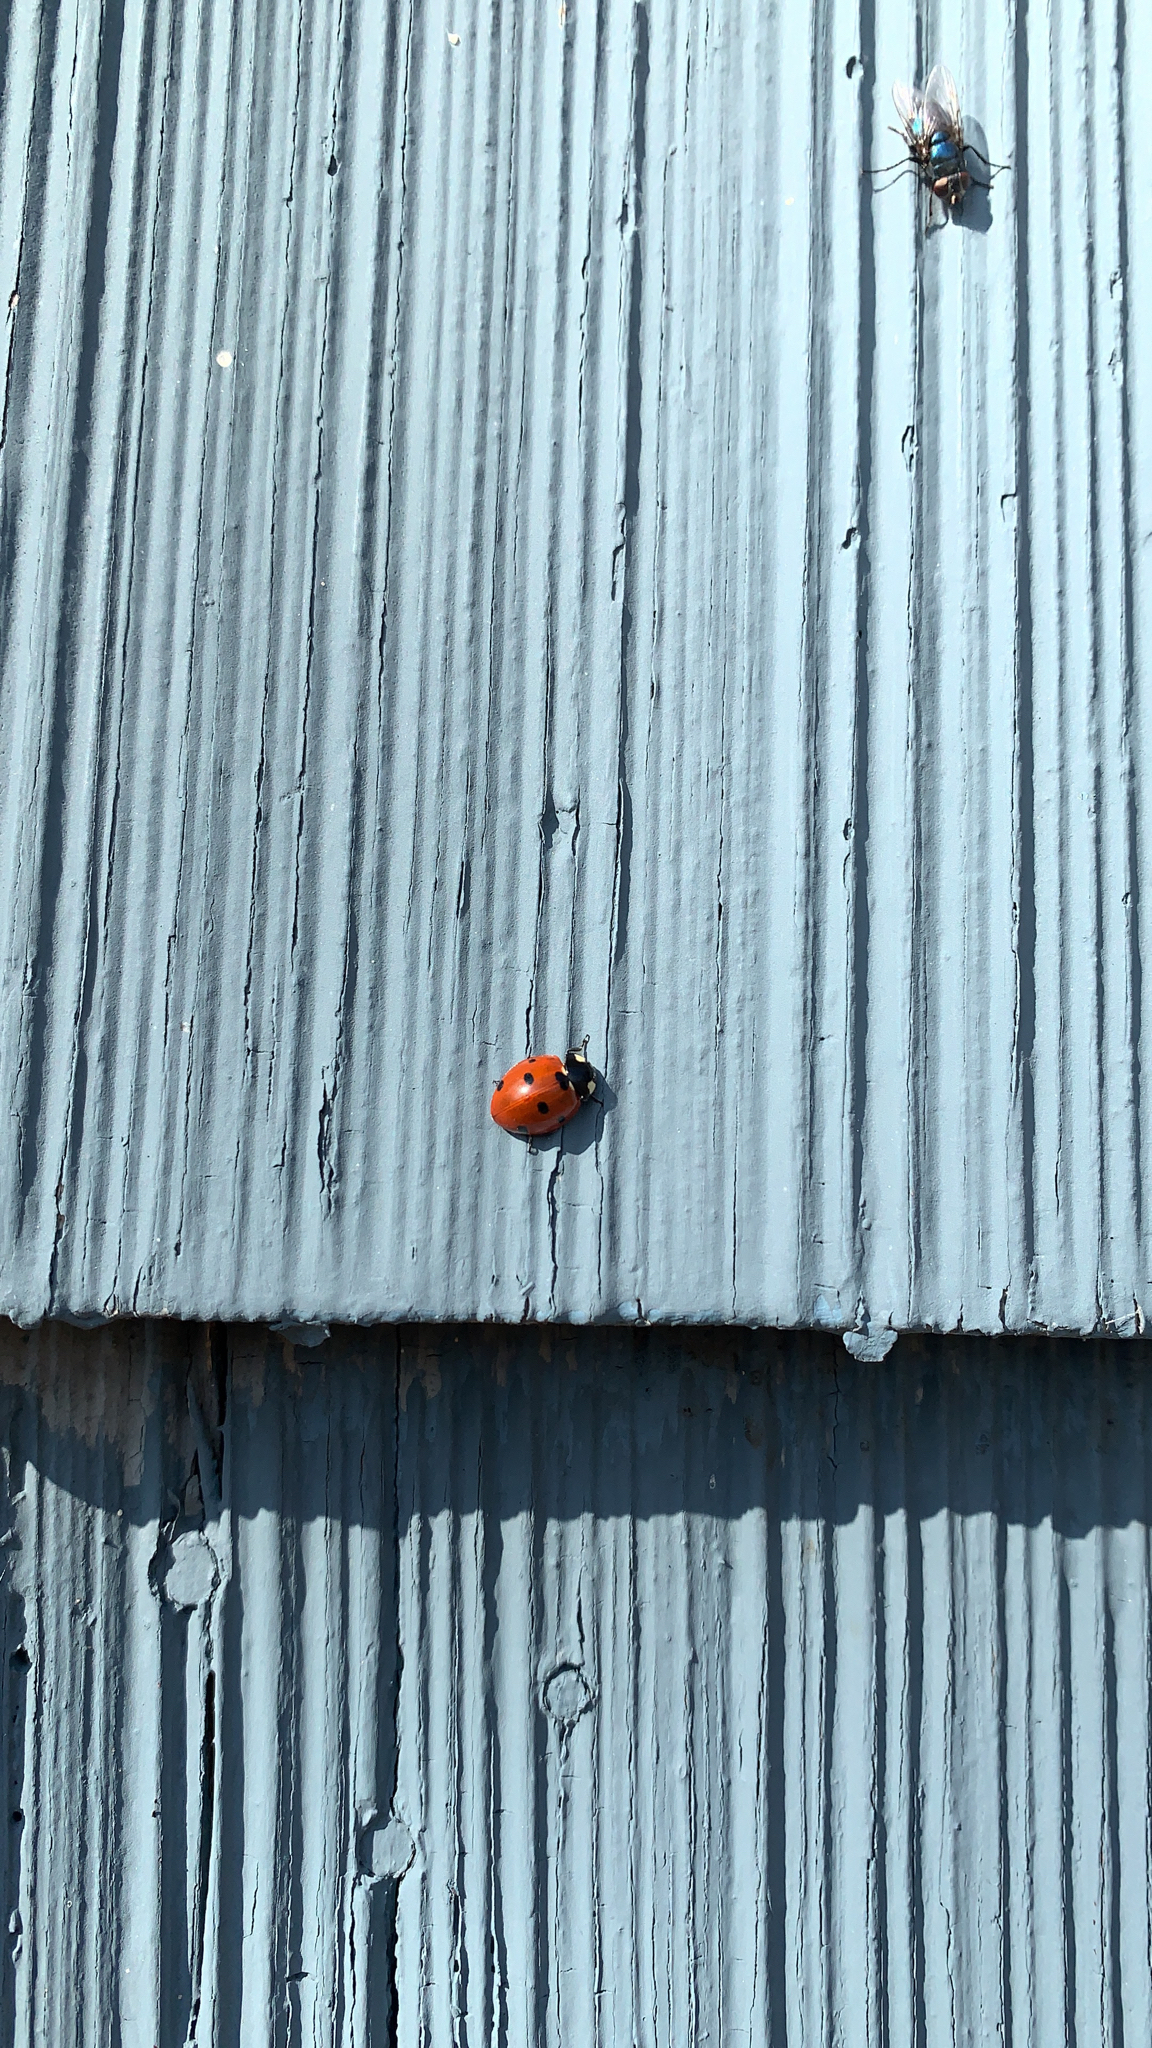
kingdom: Animalia
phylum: Arthropoda
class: Insecta
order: Coleoptera
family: Coccinellidae
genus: Coccinella
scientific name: Coccinella septempunctata
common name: Sevenspotted lady beetle
